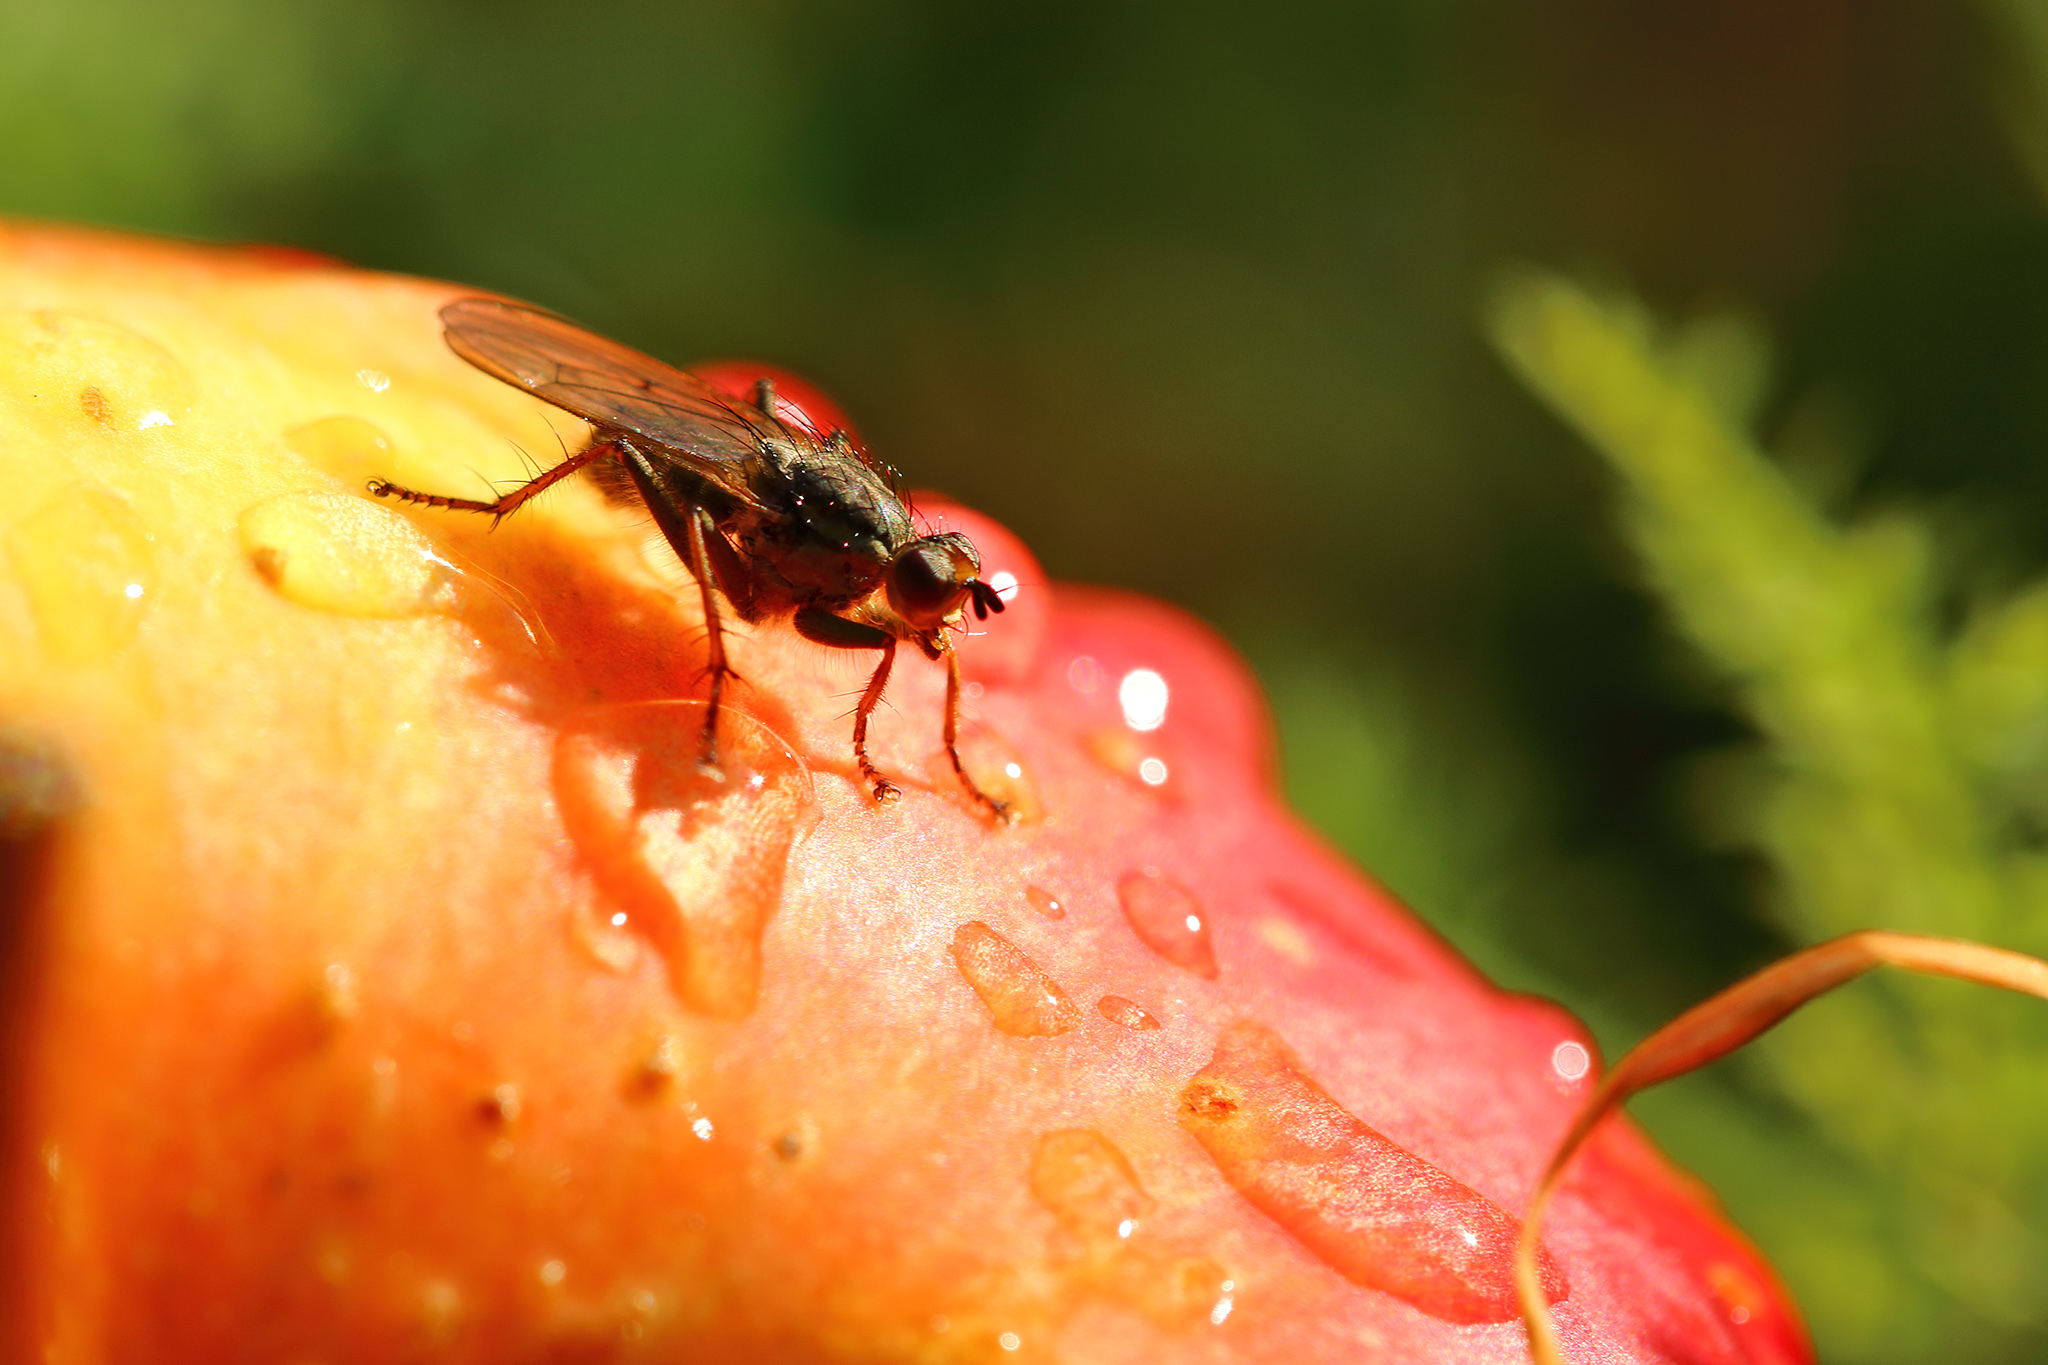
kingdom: Animalia
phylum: Arthropoda
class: Insecta
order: Diptera
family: Scathophagidae
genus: Scathophaga
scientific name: Scathophaga stercoraria
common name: Yellow dung fly
